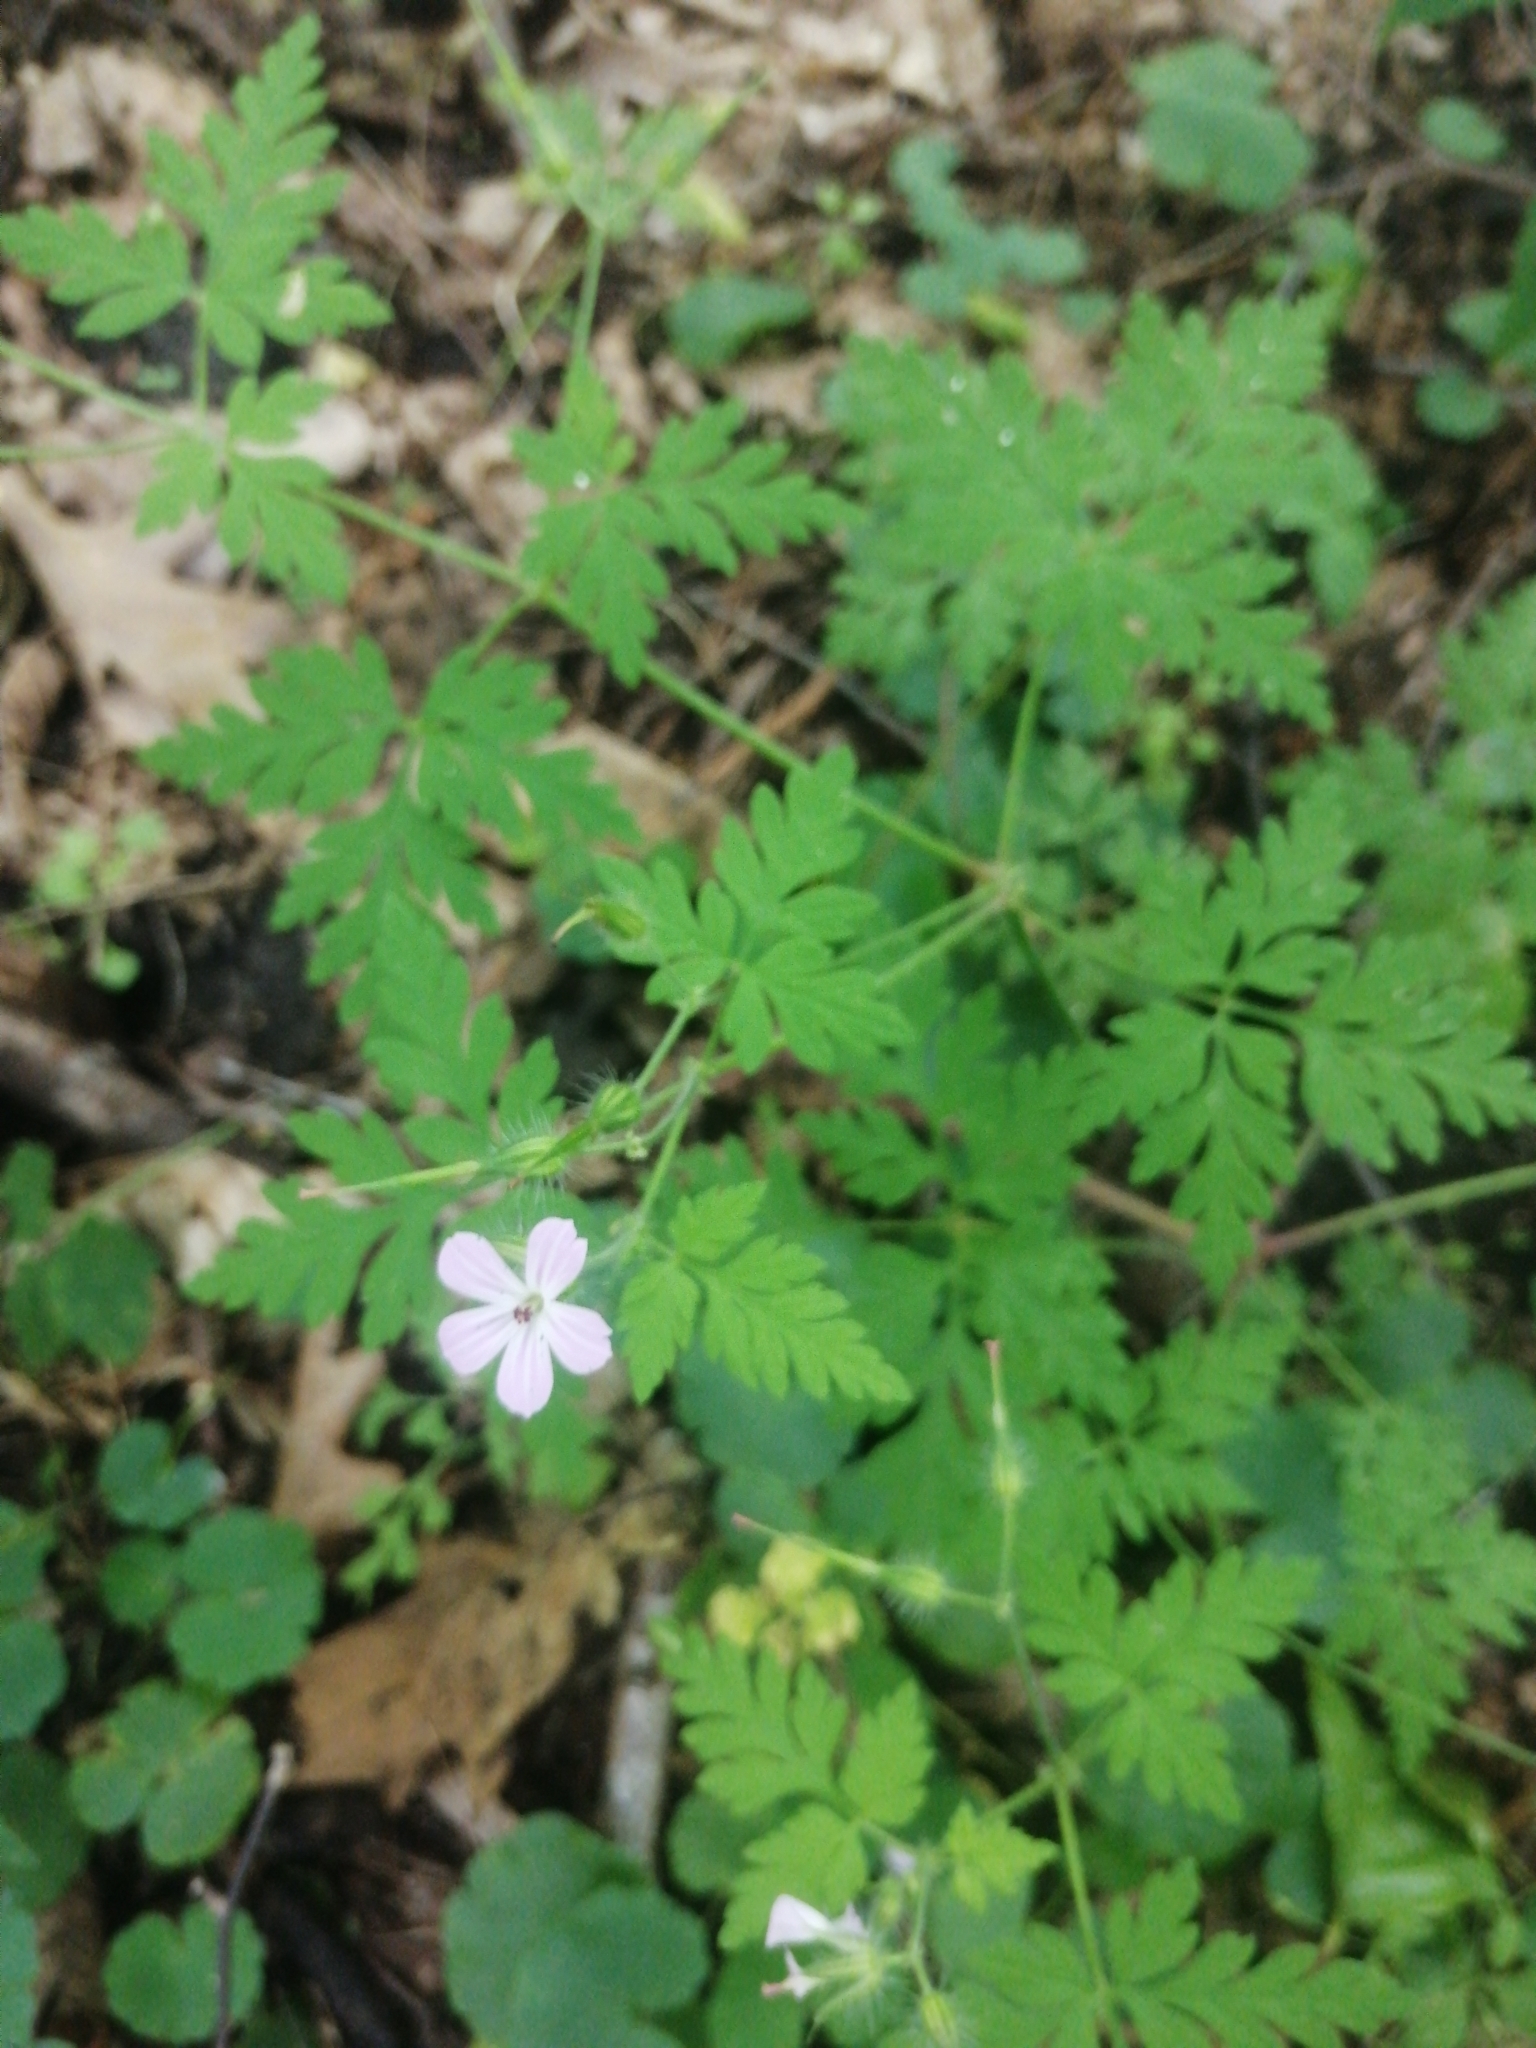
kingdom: Plantae
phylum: Tracheophyta
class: Magnoliopsida
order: Geraniales
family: Geraniaceae
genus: Geranium
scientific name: Geranium robertianum
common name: Herb-robert
